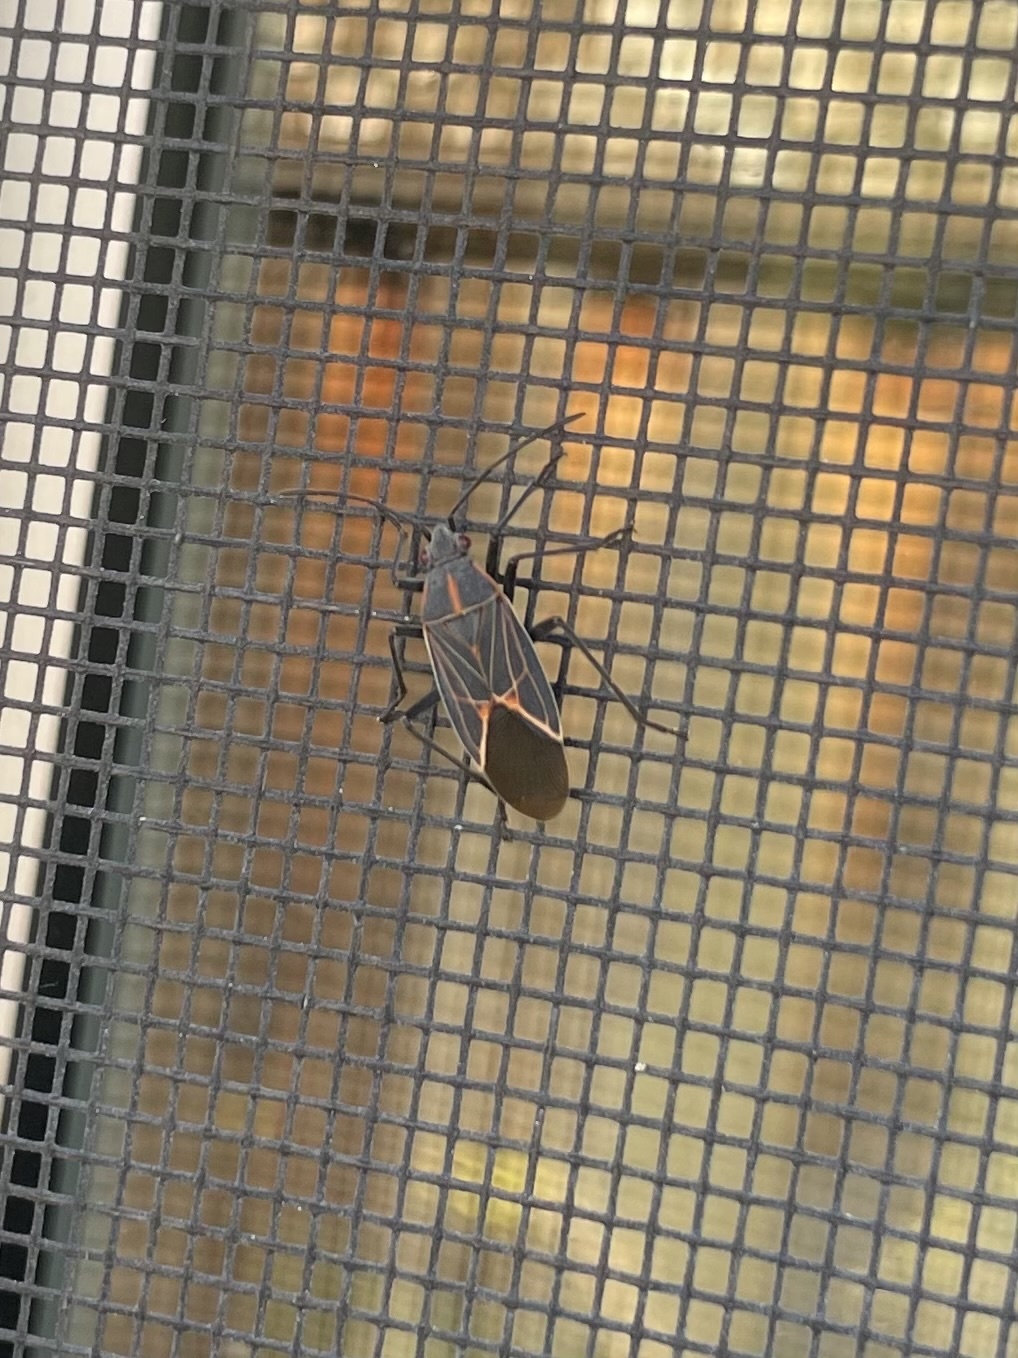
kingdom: Animalia
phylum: Arthropoda
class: Insecta
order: Hemiptera
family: Rhopalidae
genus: Boisea
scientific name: Boisea rubrolineata
